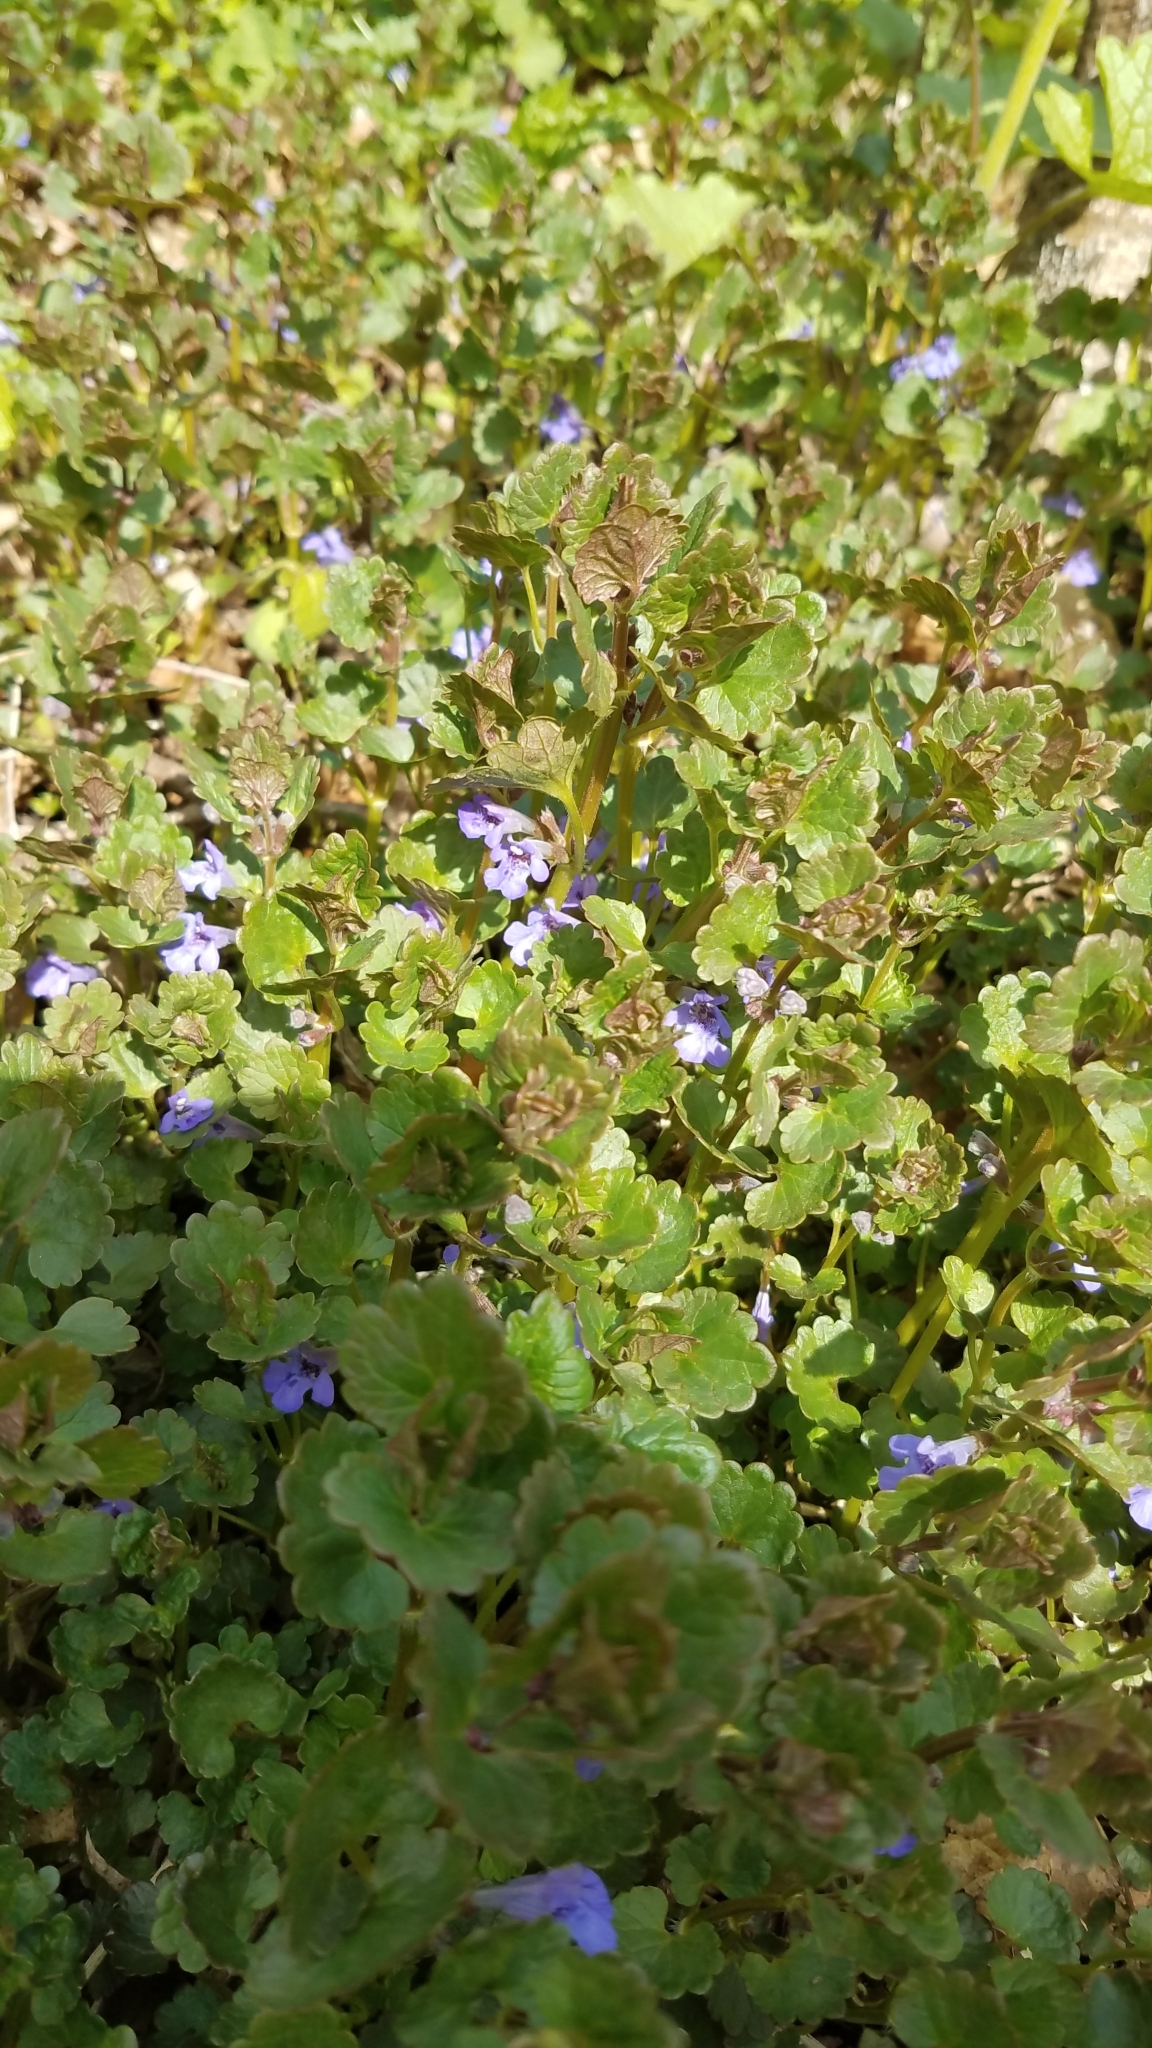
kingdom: Plantae
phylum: Tracheophyta
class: Magnoliopsida
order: Lamiales
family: Lamiaceae
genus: Glechoma
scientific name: Glechoma hederacea
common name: Ground ivy
